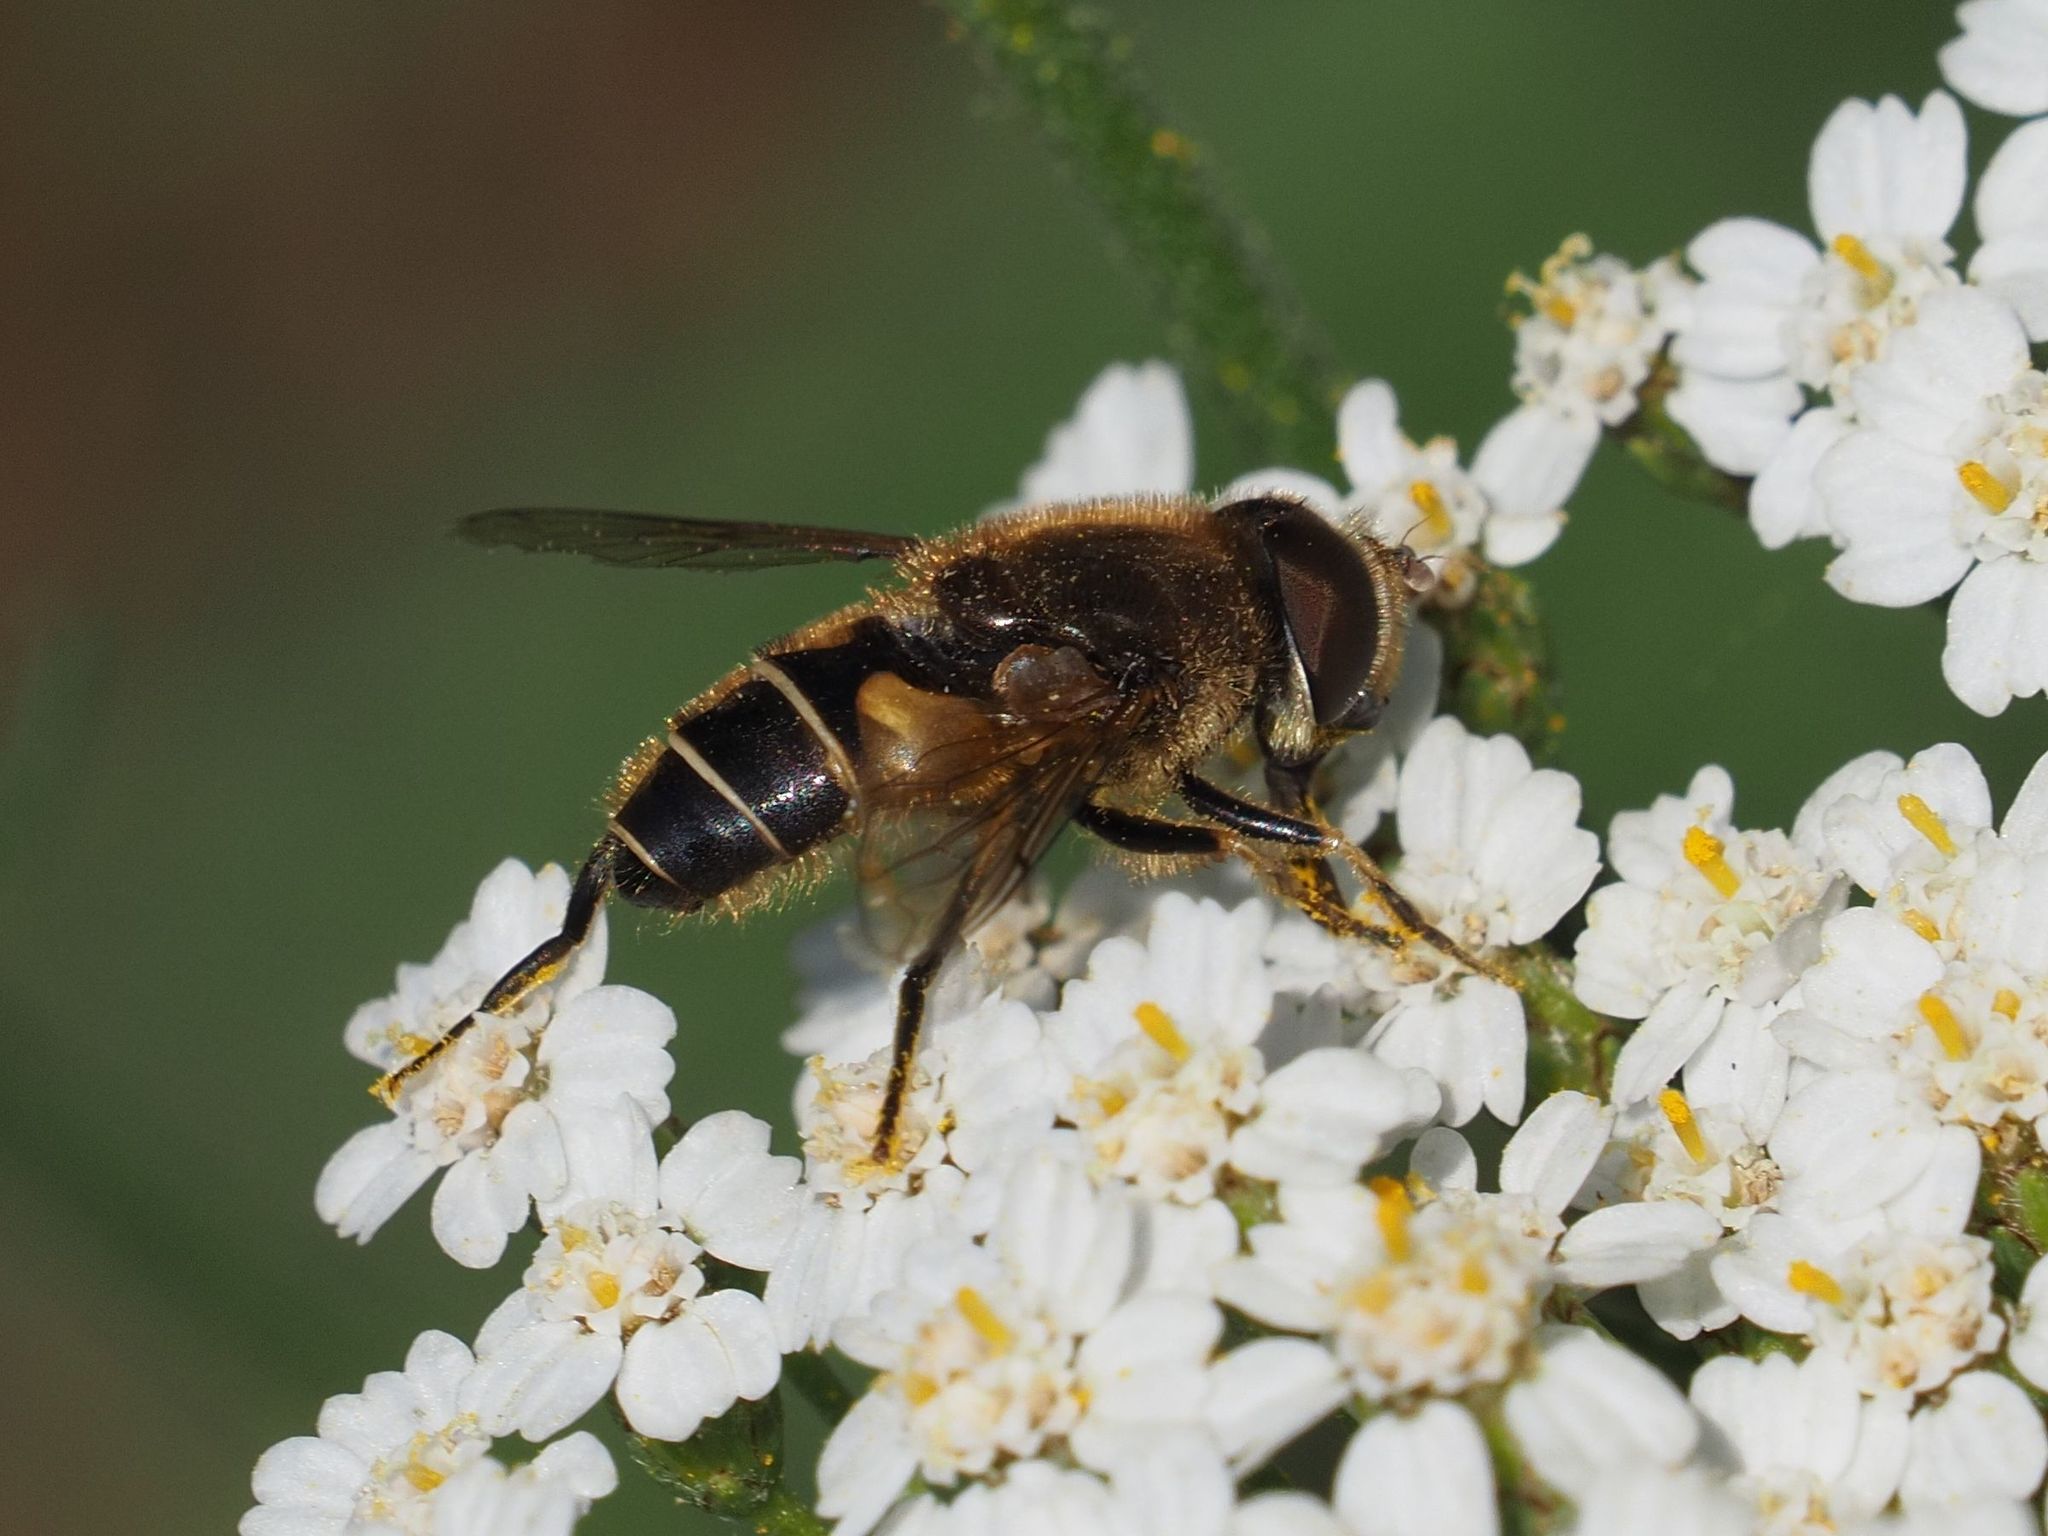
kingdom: Animalia
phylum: Arthropoda
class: Insecta
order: Diptera
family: Syrphidae
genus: Eristalis
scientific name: Eristalis nemorum
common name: Orange-spined drone fly
